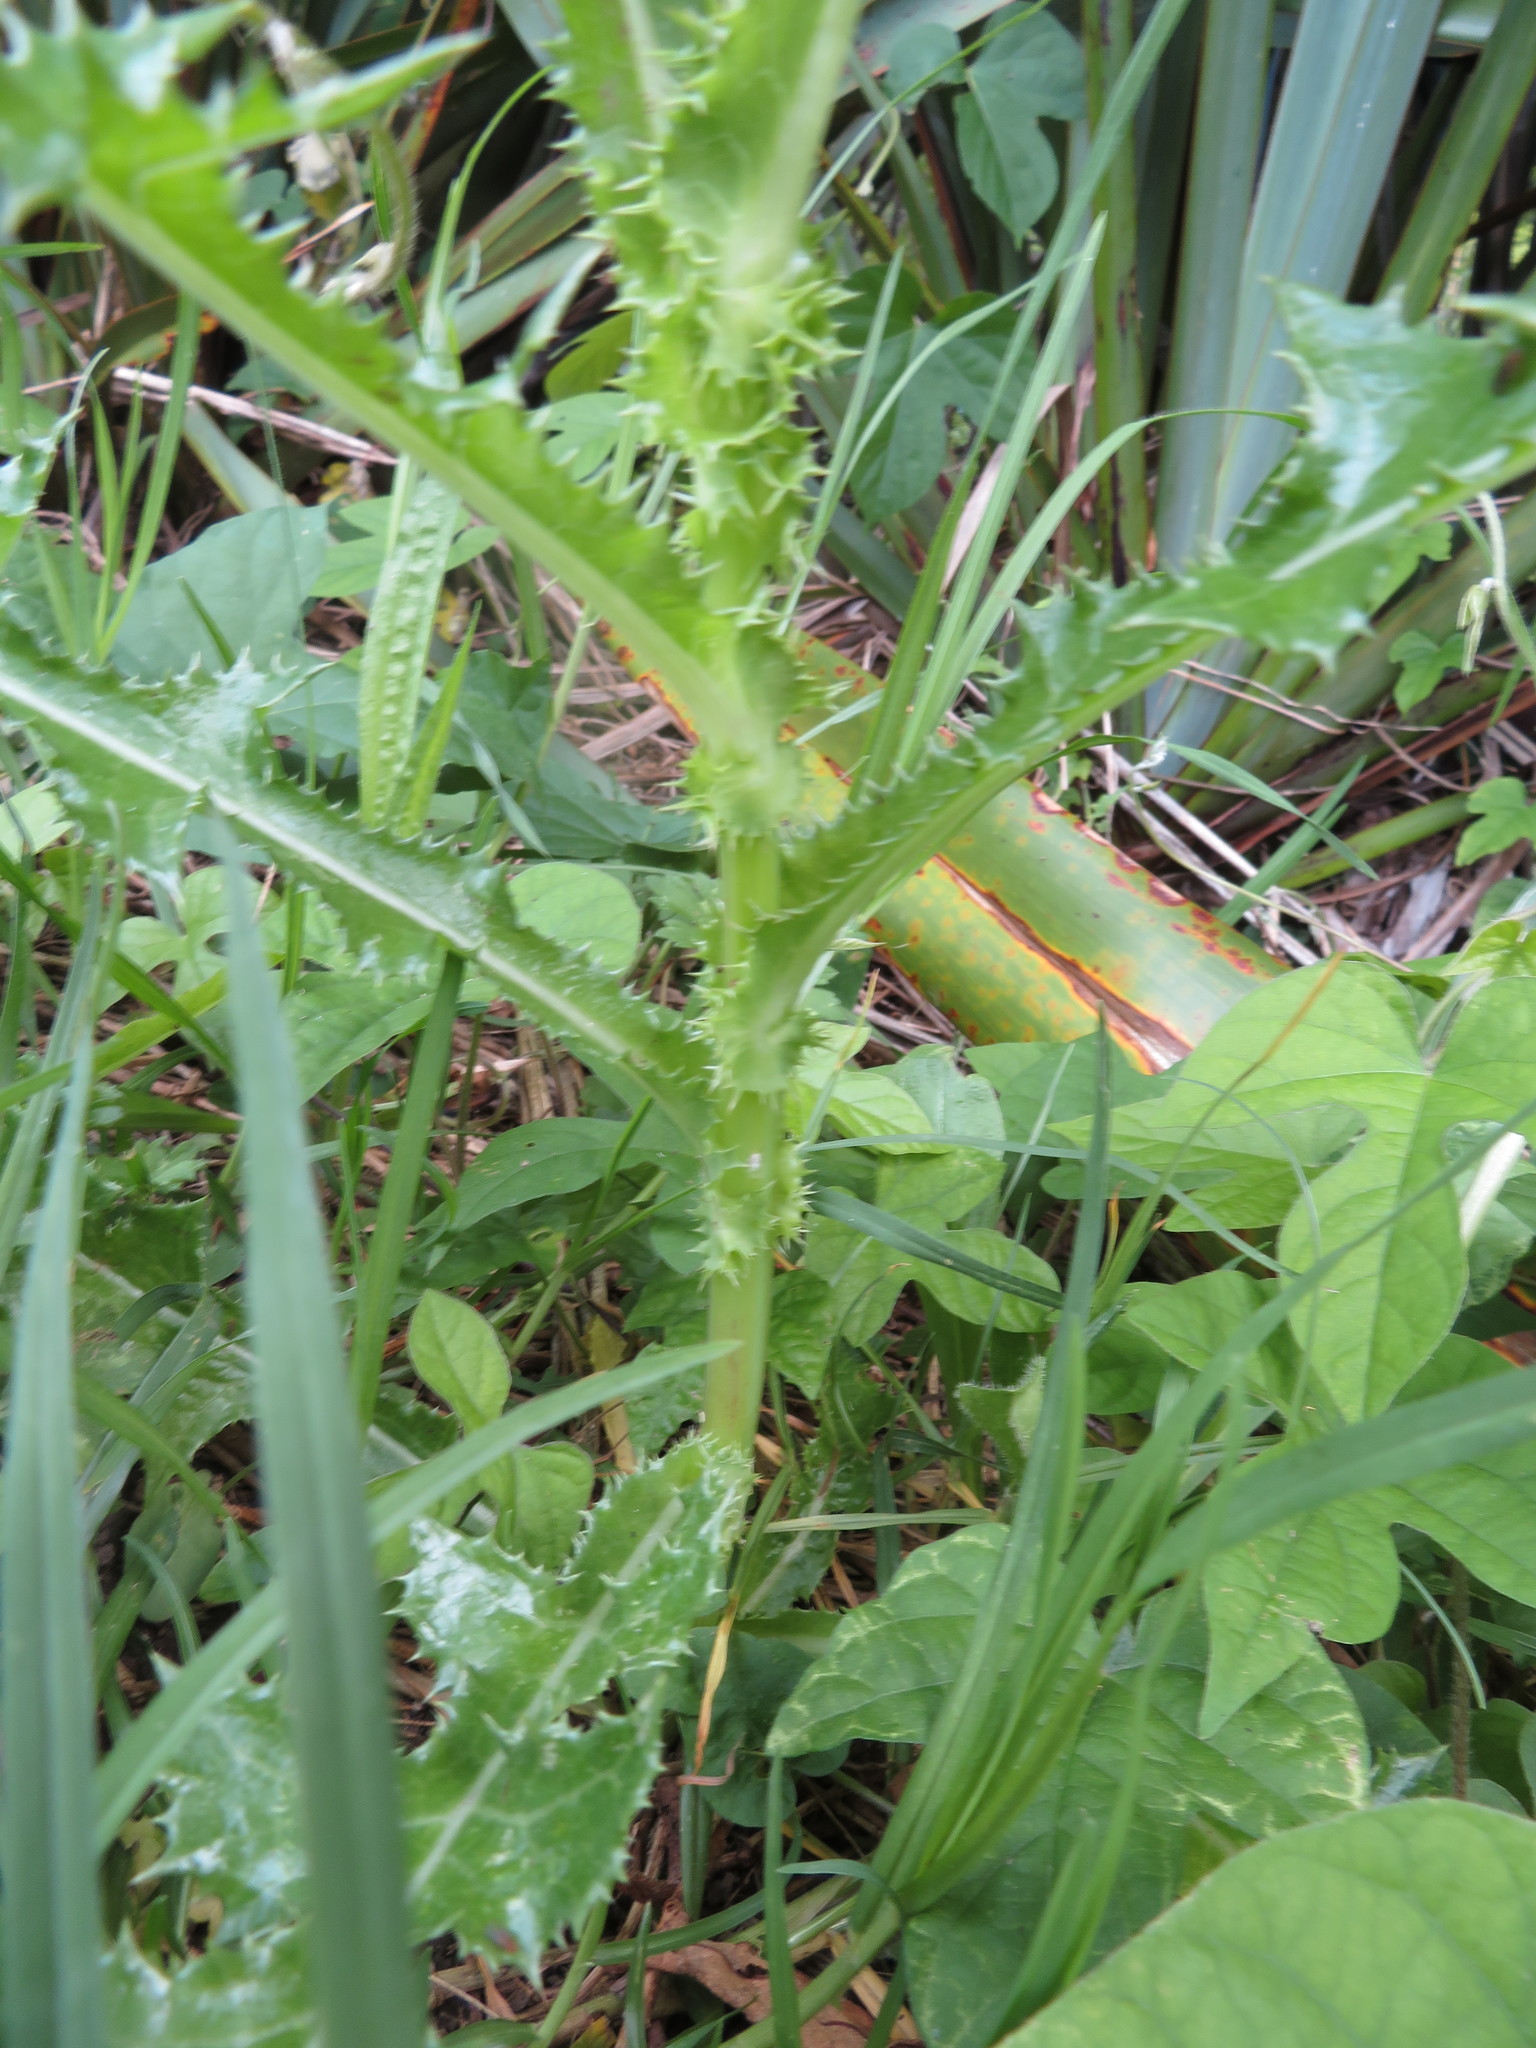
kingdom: Plantae
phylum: Tracheophyta
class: Magnoliopsida
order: Asterales
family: Asteraceae
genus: Sonchus
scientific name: Sonchus asper
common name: Prickly sow-thistle
